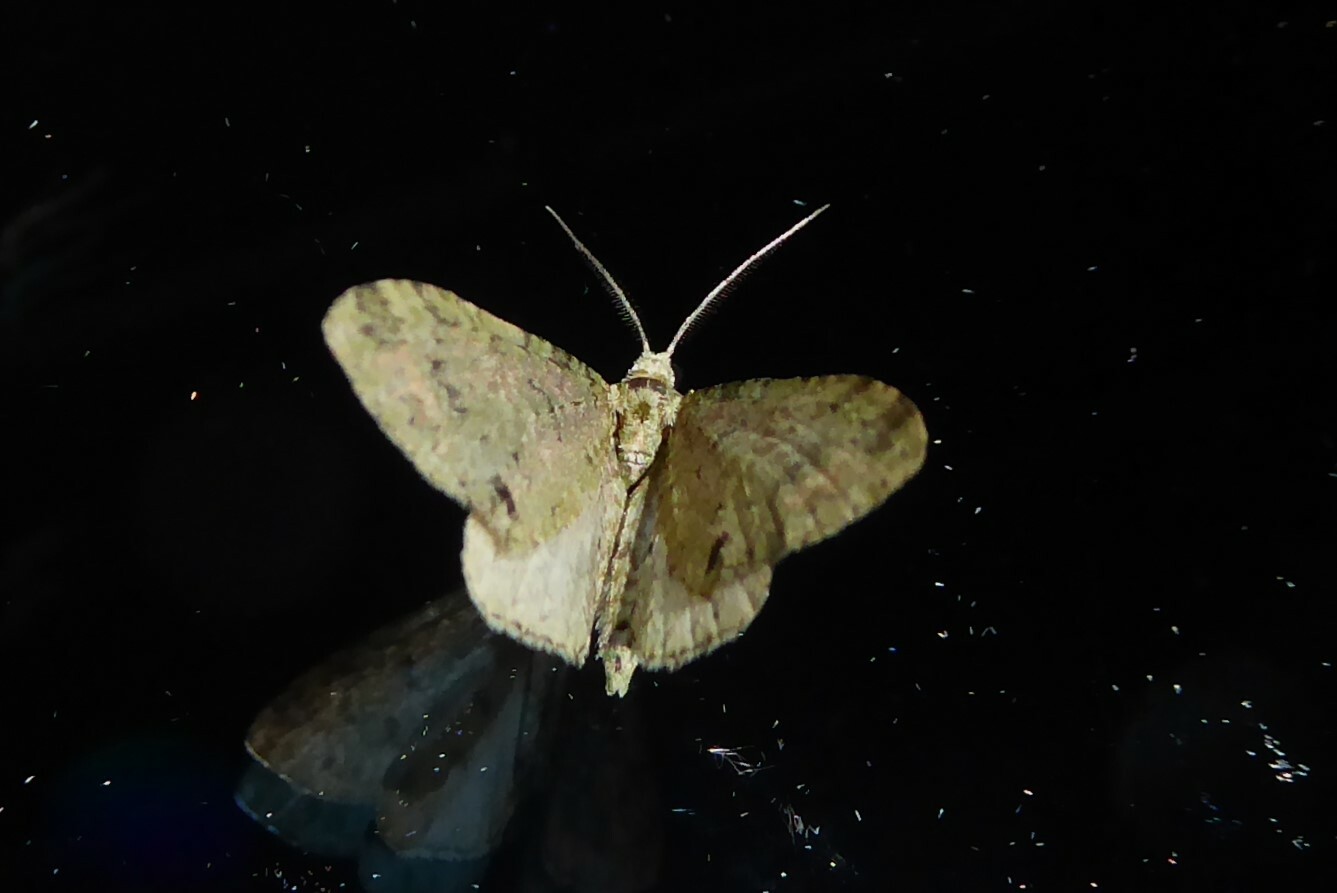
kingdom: Animalia
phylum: Arthropoda
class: Insecta
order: Lepidoptera
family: Geometridae
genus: Pasiphila
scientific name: Pasiphila cotinaea
